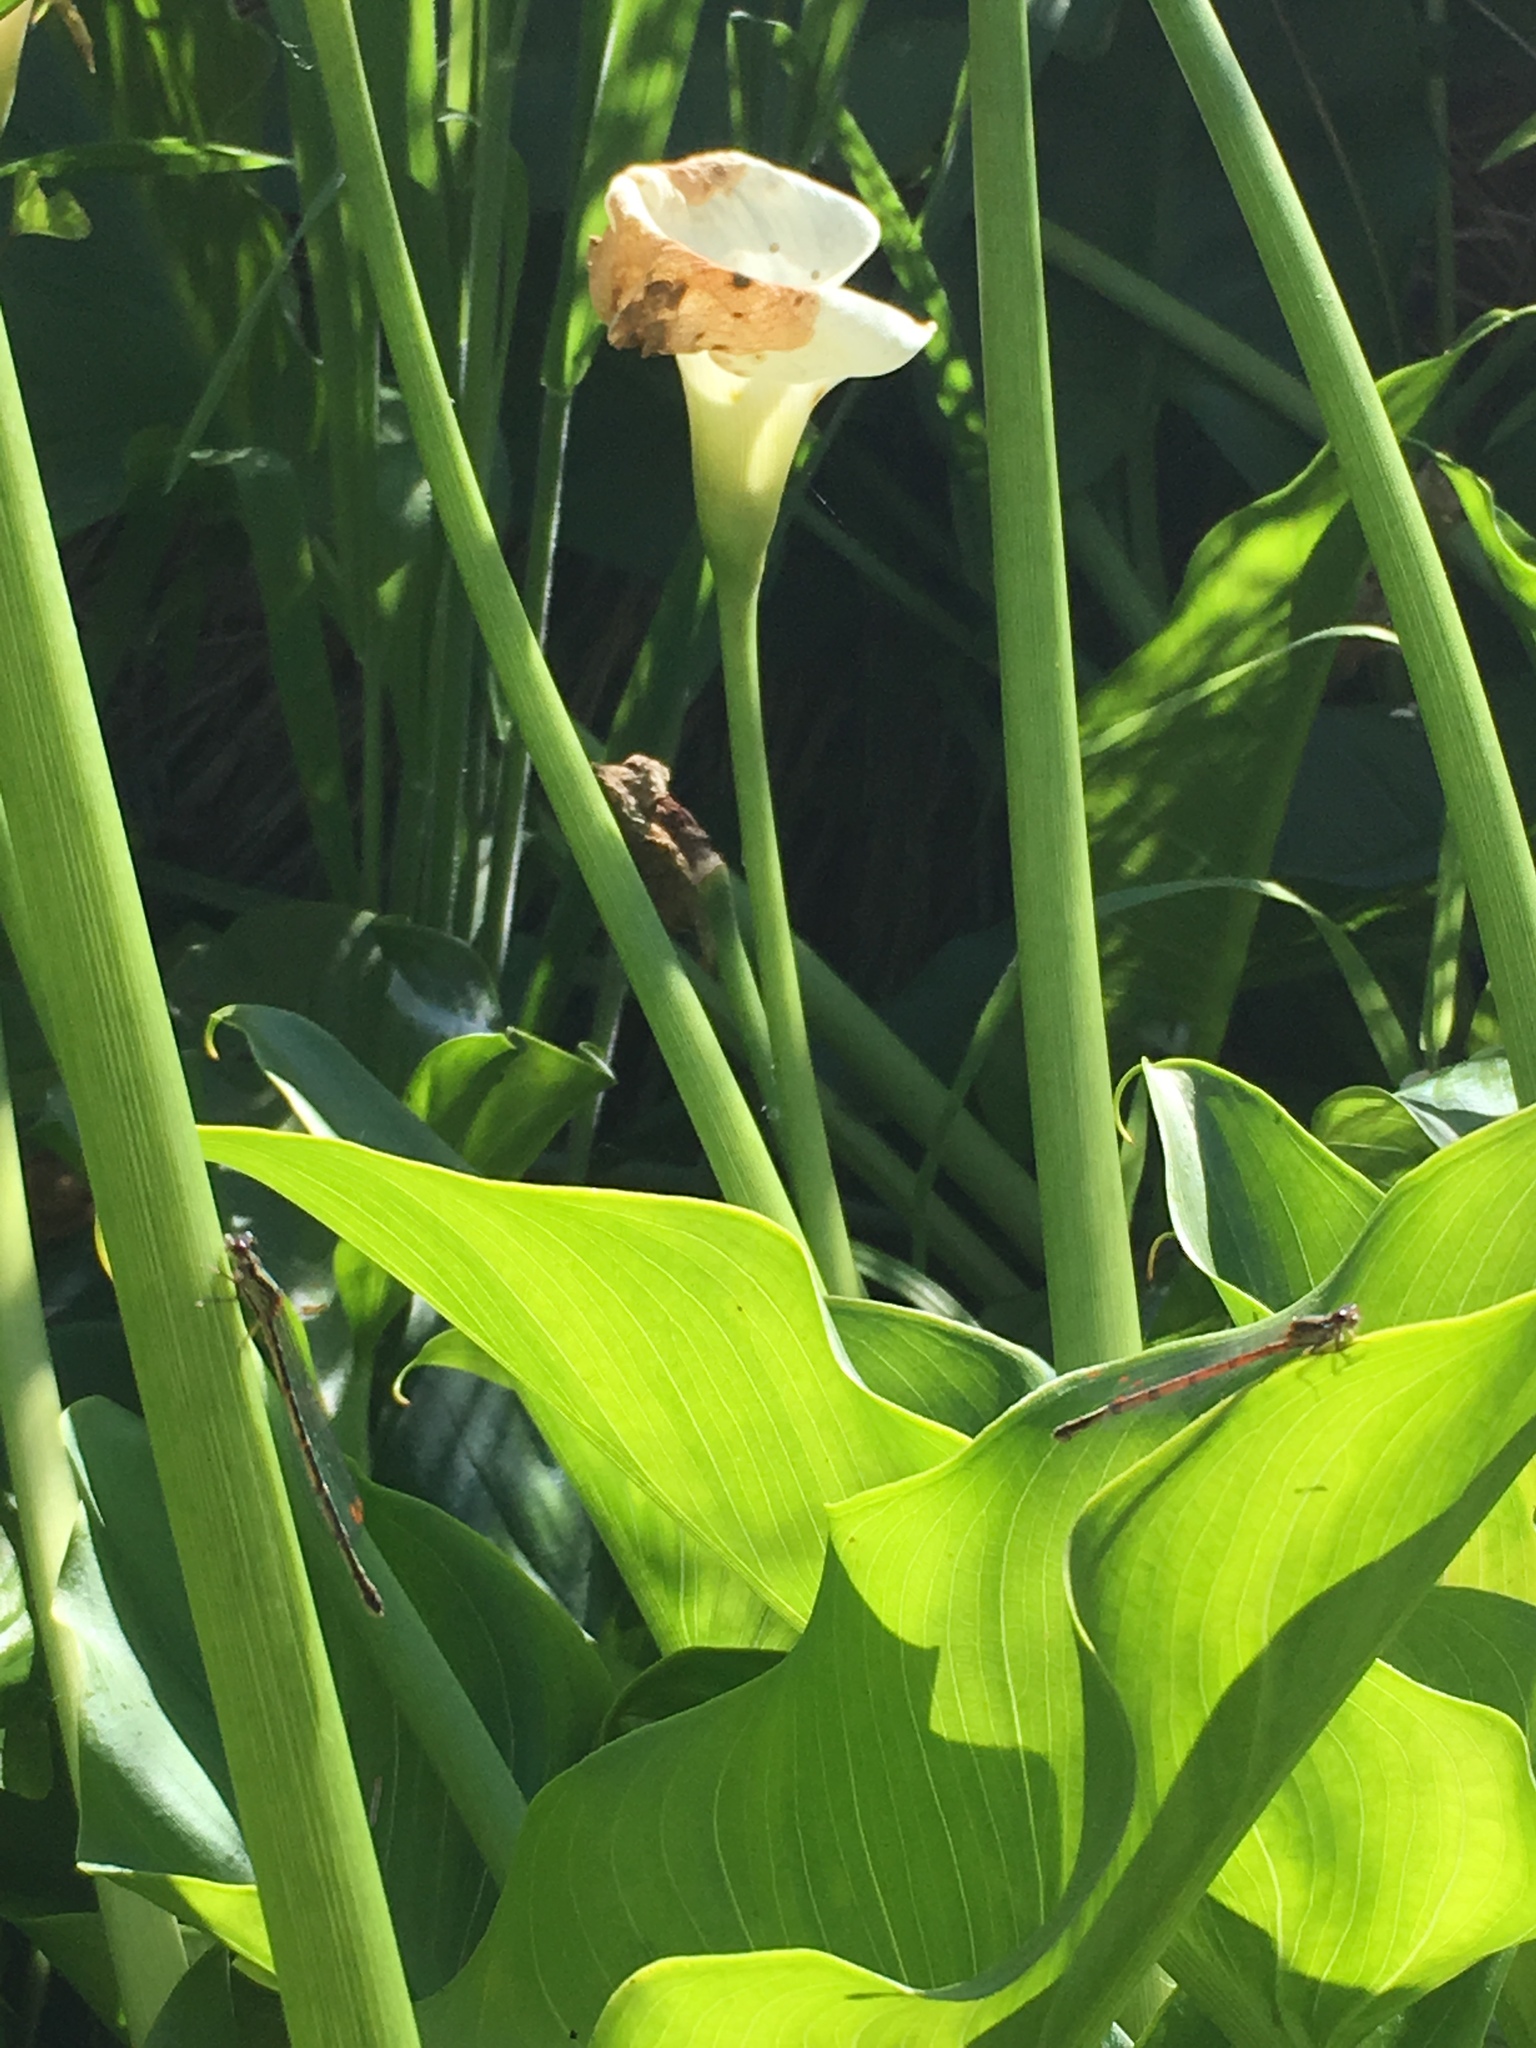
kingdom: Animalia
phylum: Arthropoda
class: Insecta
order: Odonata
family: Coenagrionidae
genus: Xanthocnemis
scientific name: Xanthocnemis zealandica
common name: Common redcoat damselfly
